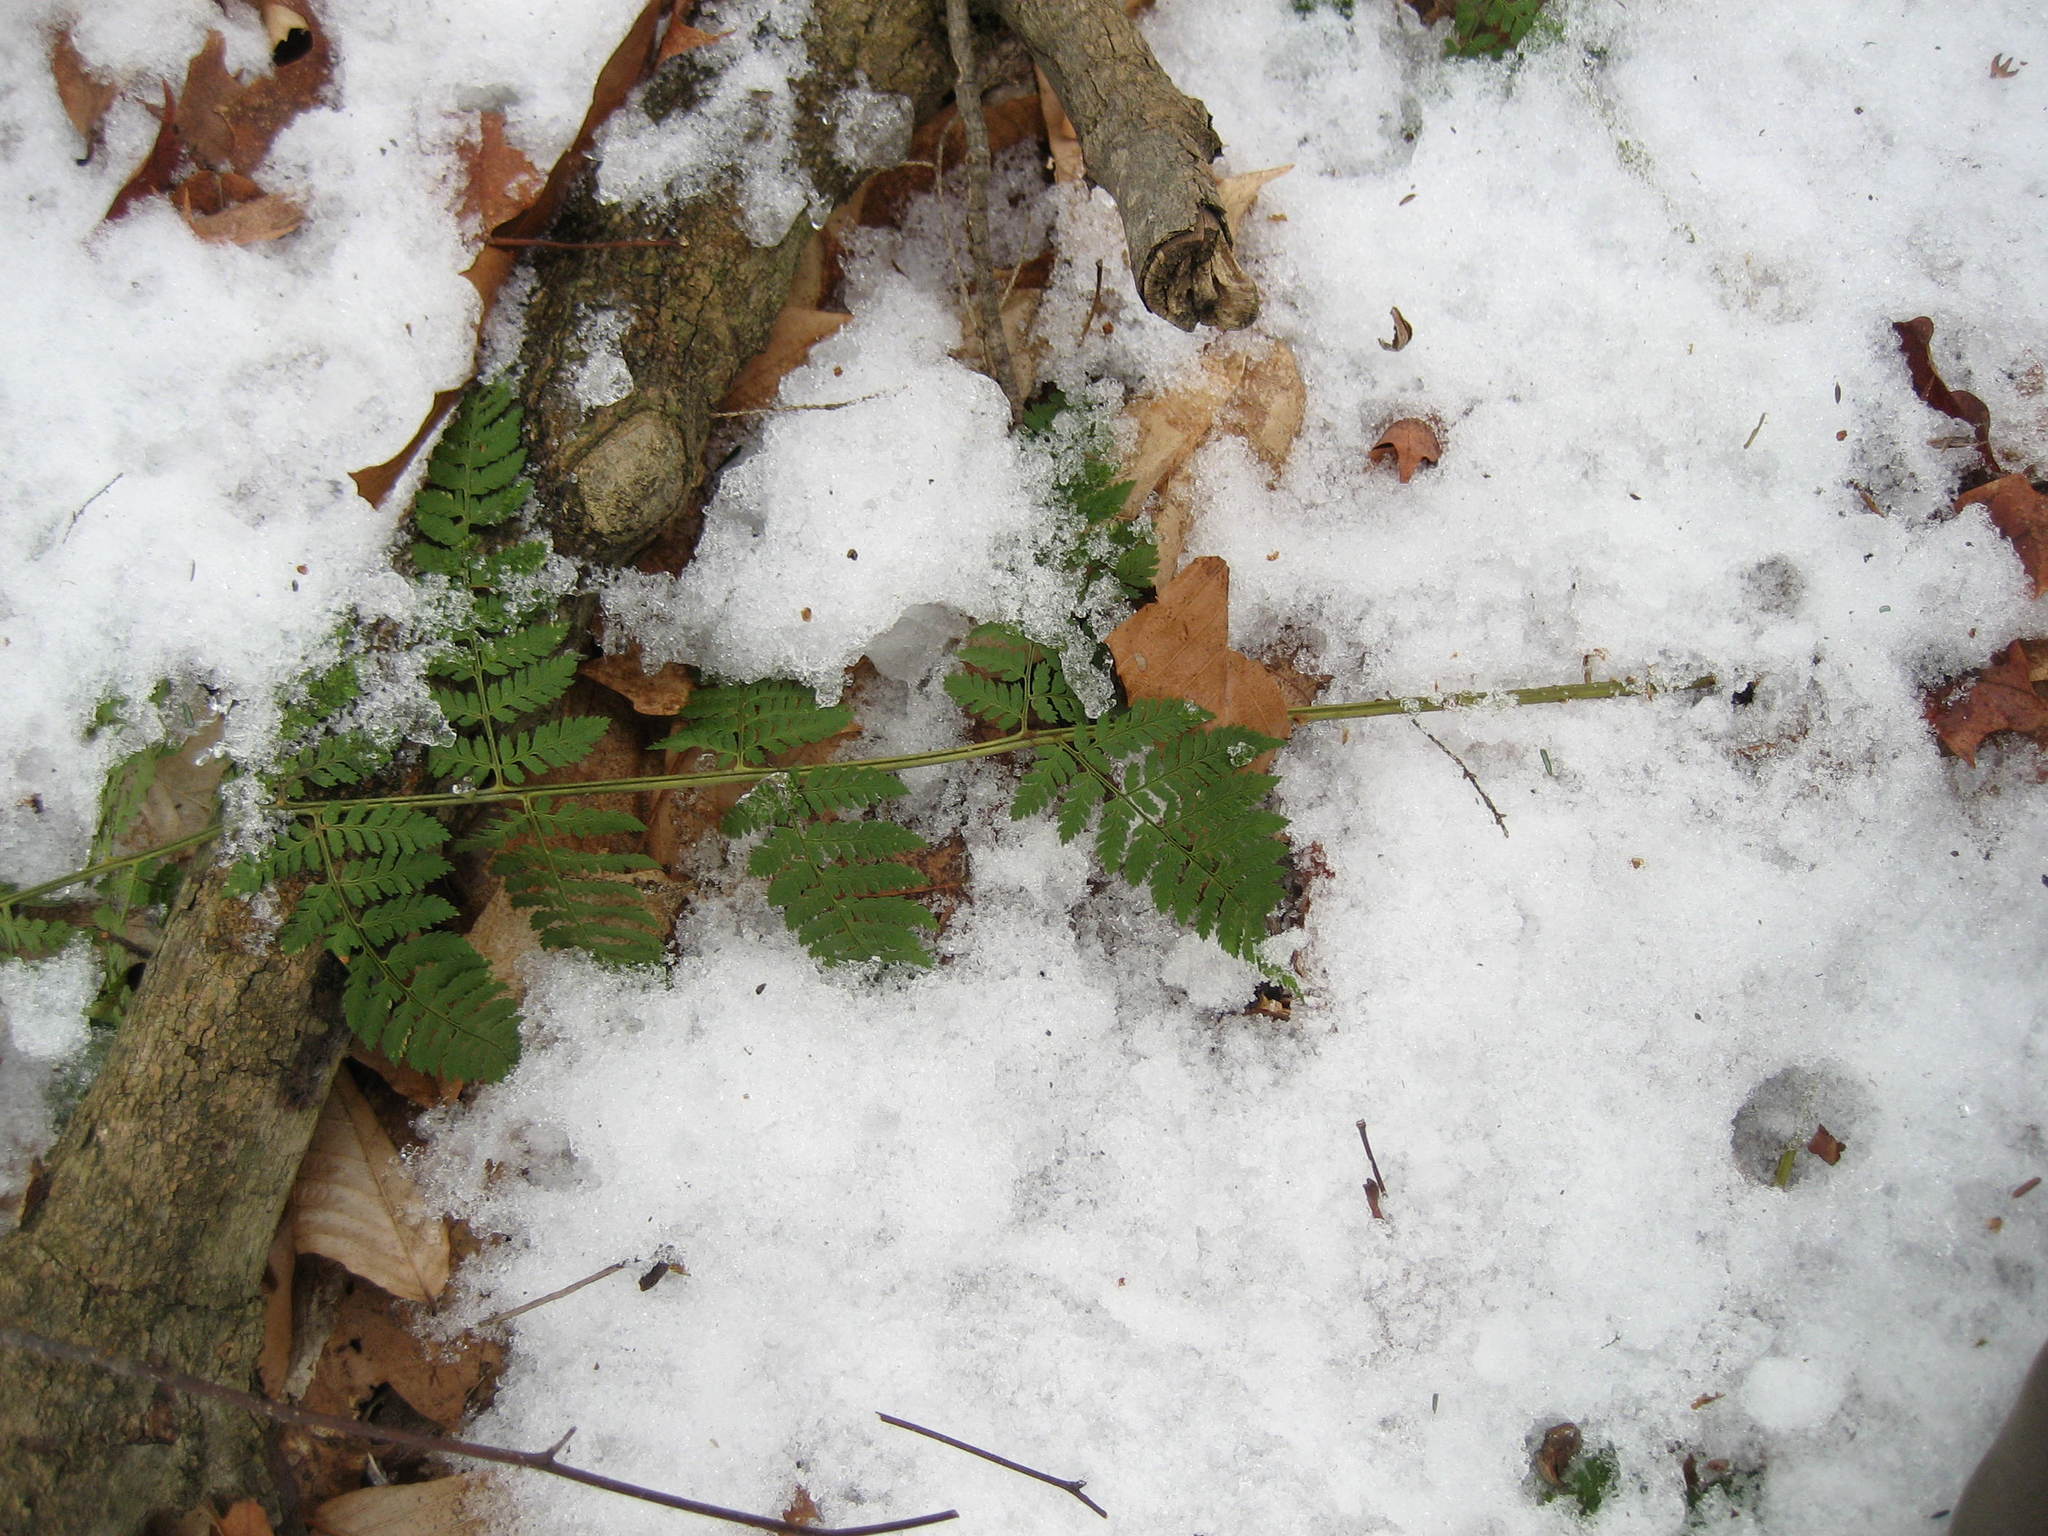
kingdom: Plantae
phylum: Tracheophyta
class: Polypodiopsida
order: Polypodiales
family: Dryopteridaceae
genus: Dryopteris
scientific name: Dryopteris intermedia
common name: Evergreen wood fern
